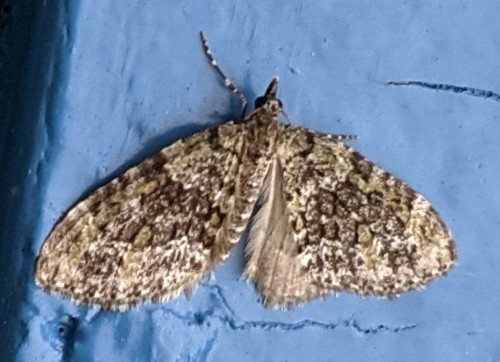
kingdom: Animalia
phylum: Arthropoda
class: Insecta
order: Lepidoptera
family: Geometridae
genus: Acasis
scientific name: Acasis viridata
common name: Olive-and-black carpet moth
